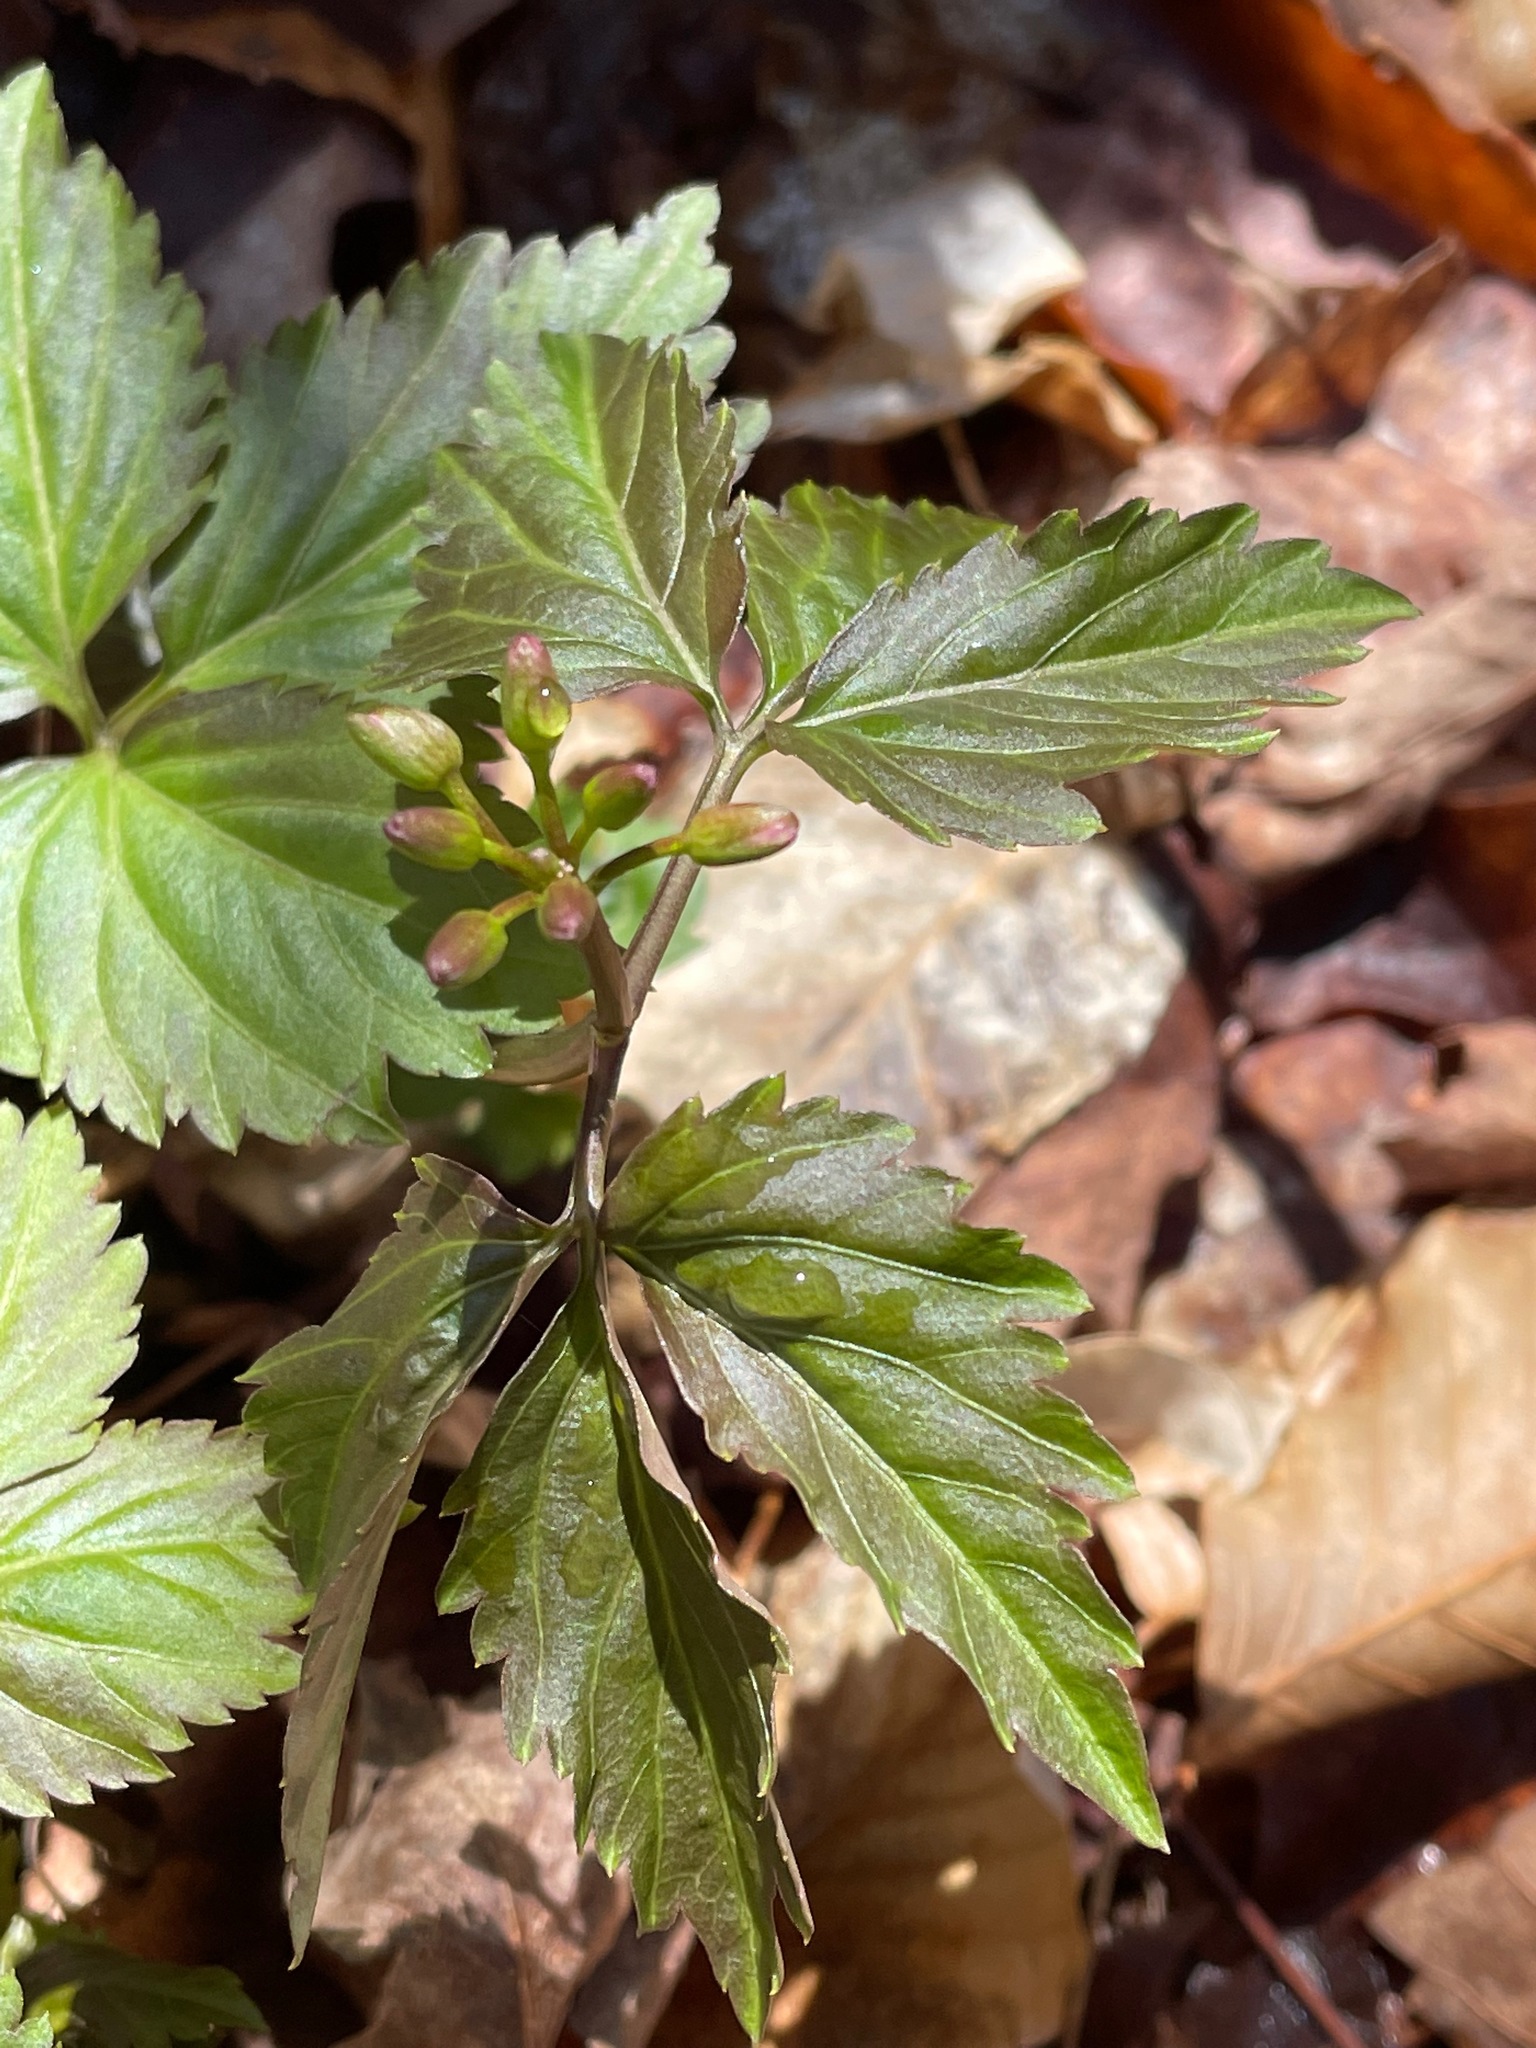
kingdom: Plantae
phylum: Tracheophyta
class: Magnoliopsida
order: Brassicales
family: Brassicaceae
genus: Cardamine
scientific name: Cardamine diphylla
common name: Broad-leaved toothwort
